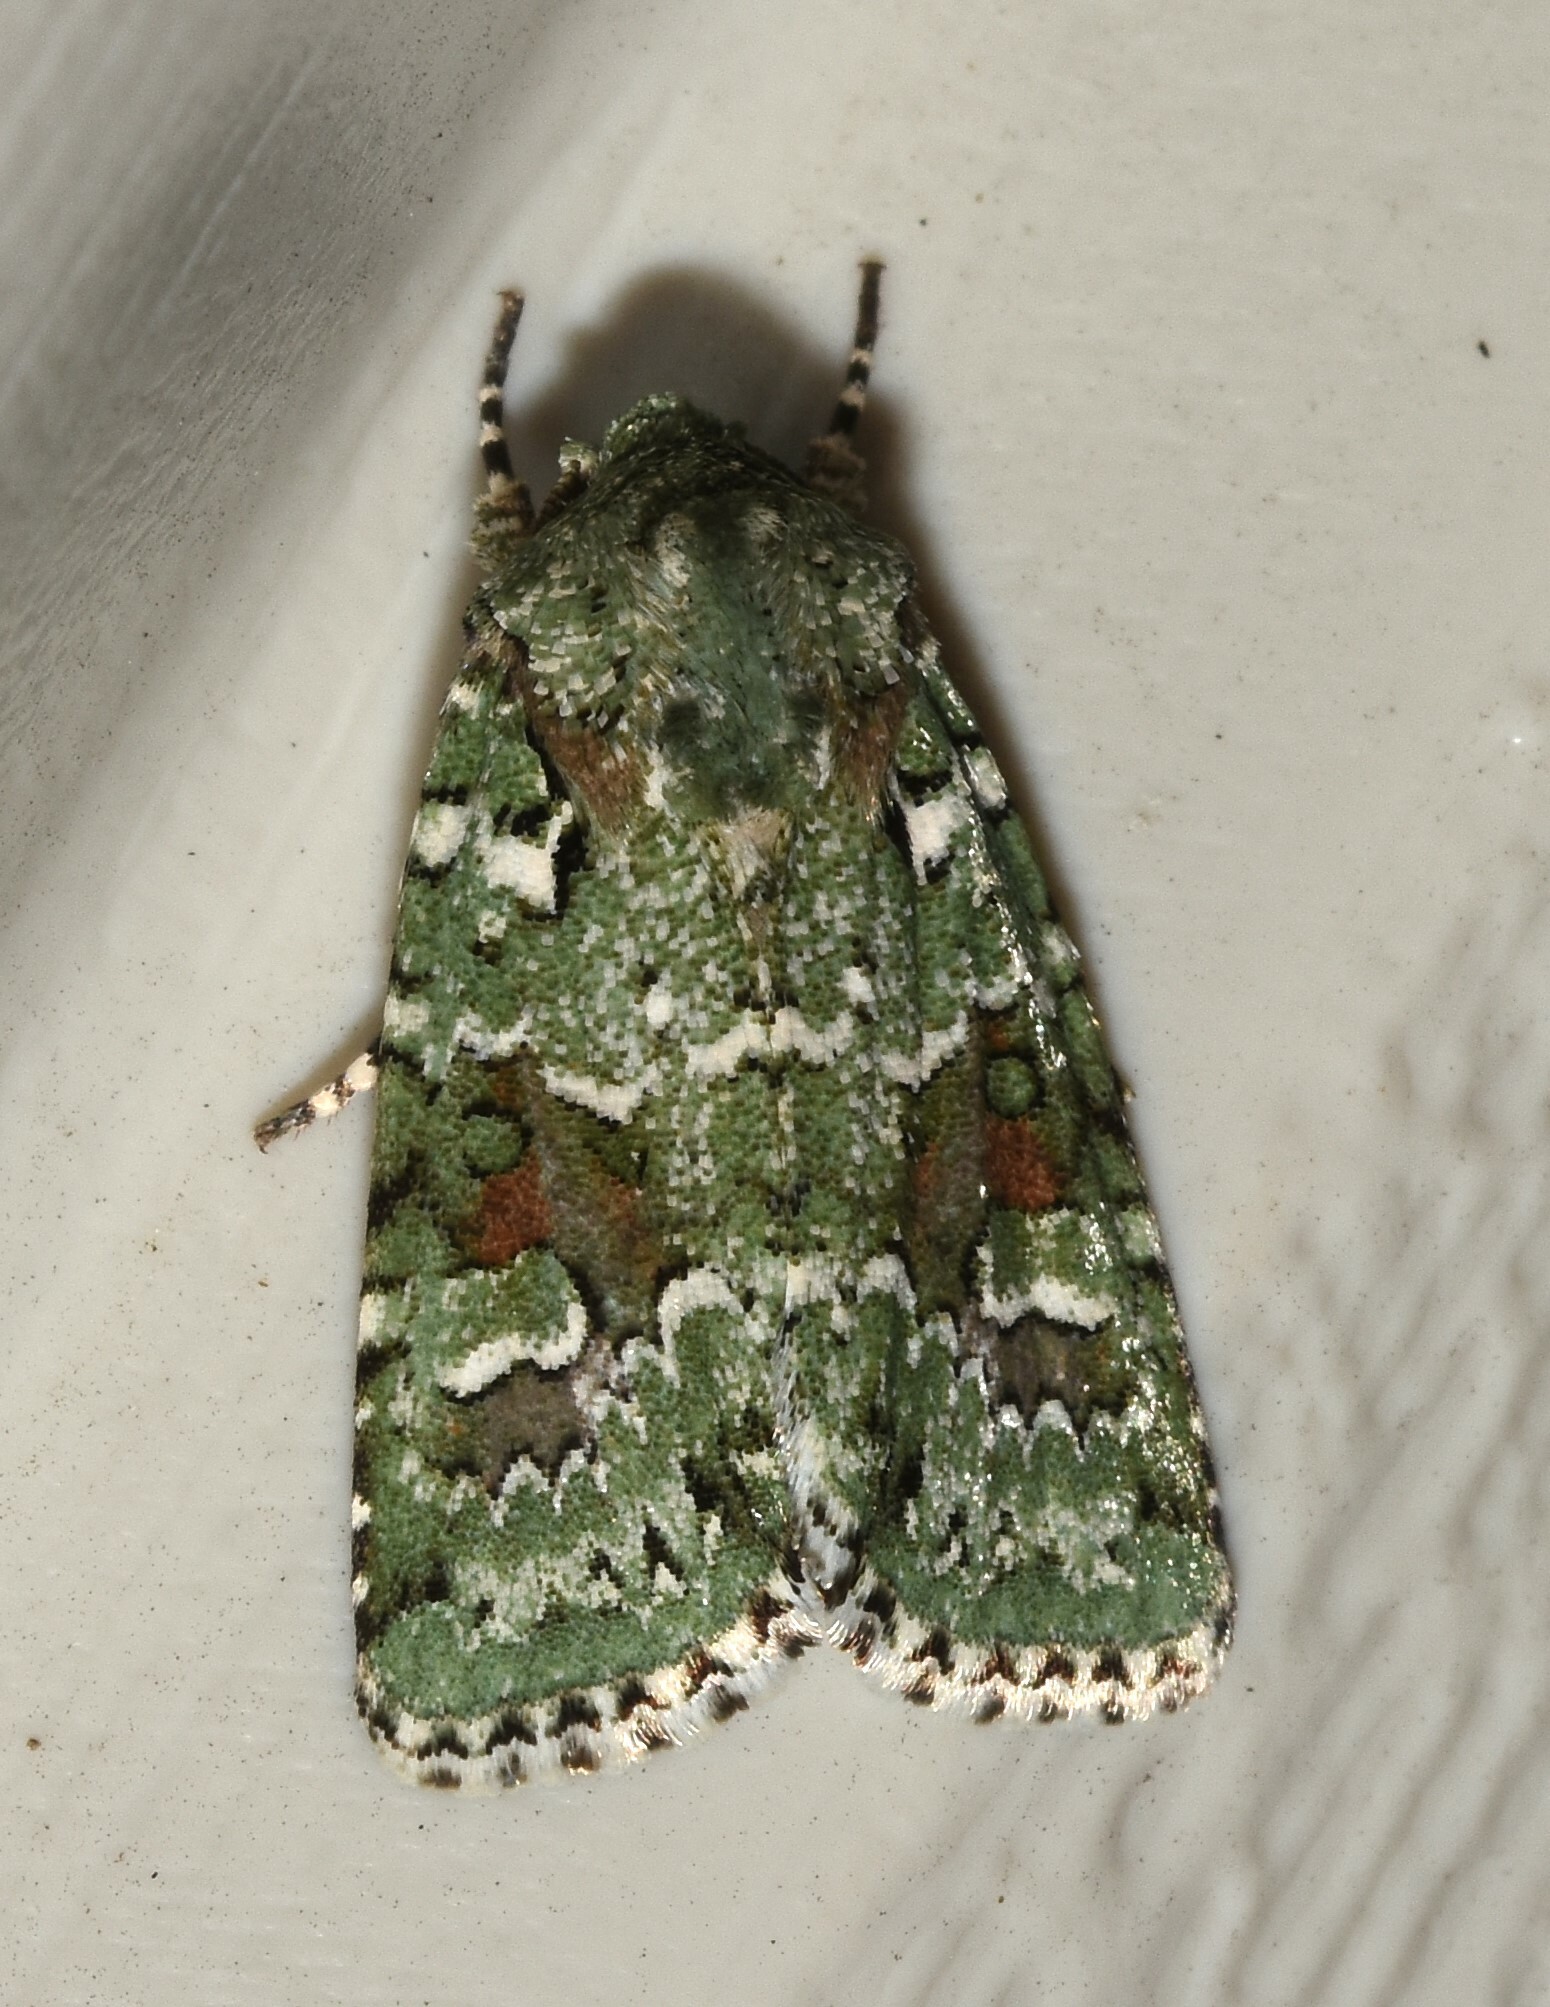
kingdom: Animalia
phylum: Arthropoda
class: Insecta
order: Lepidoptera
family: Noctuidae
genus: Lacinipolia
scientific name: Lacinipolia laudabilis
